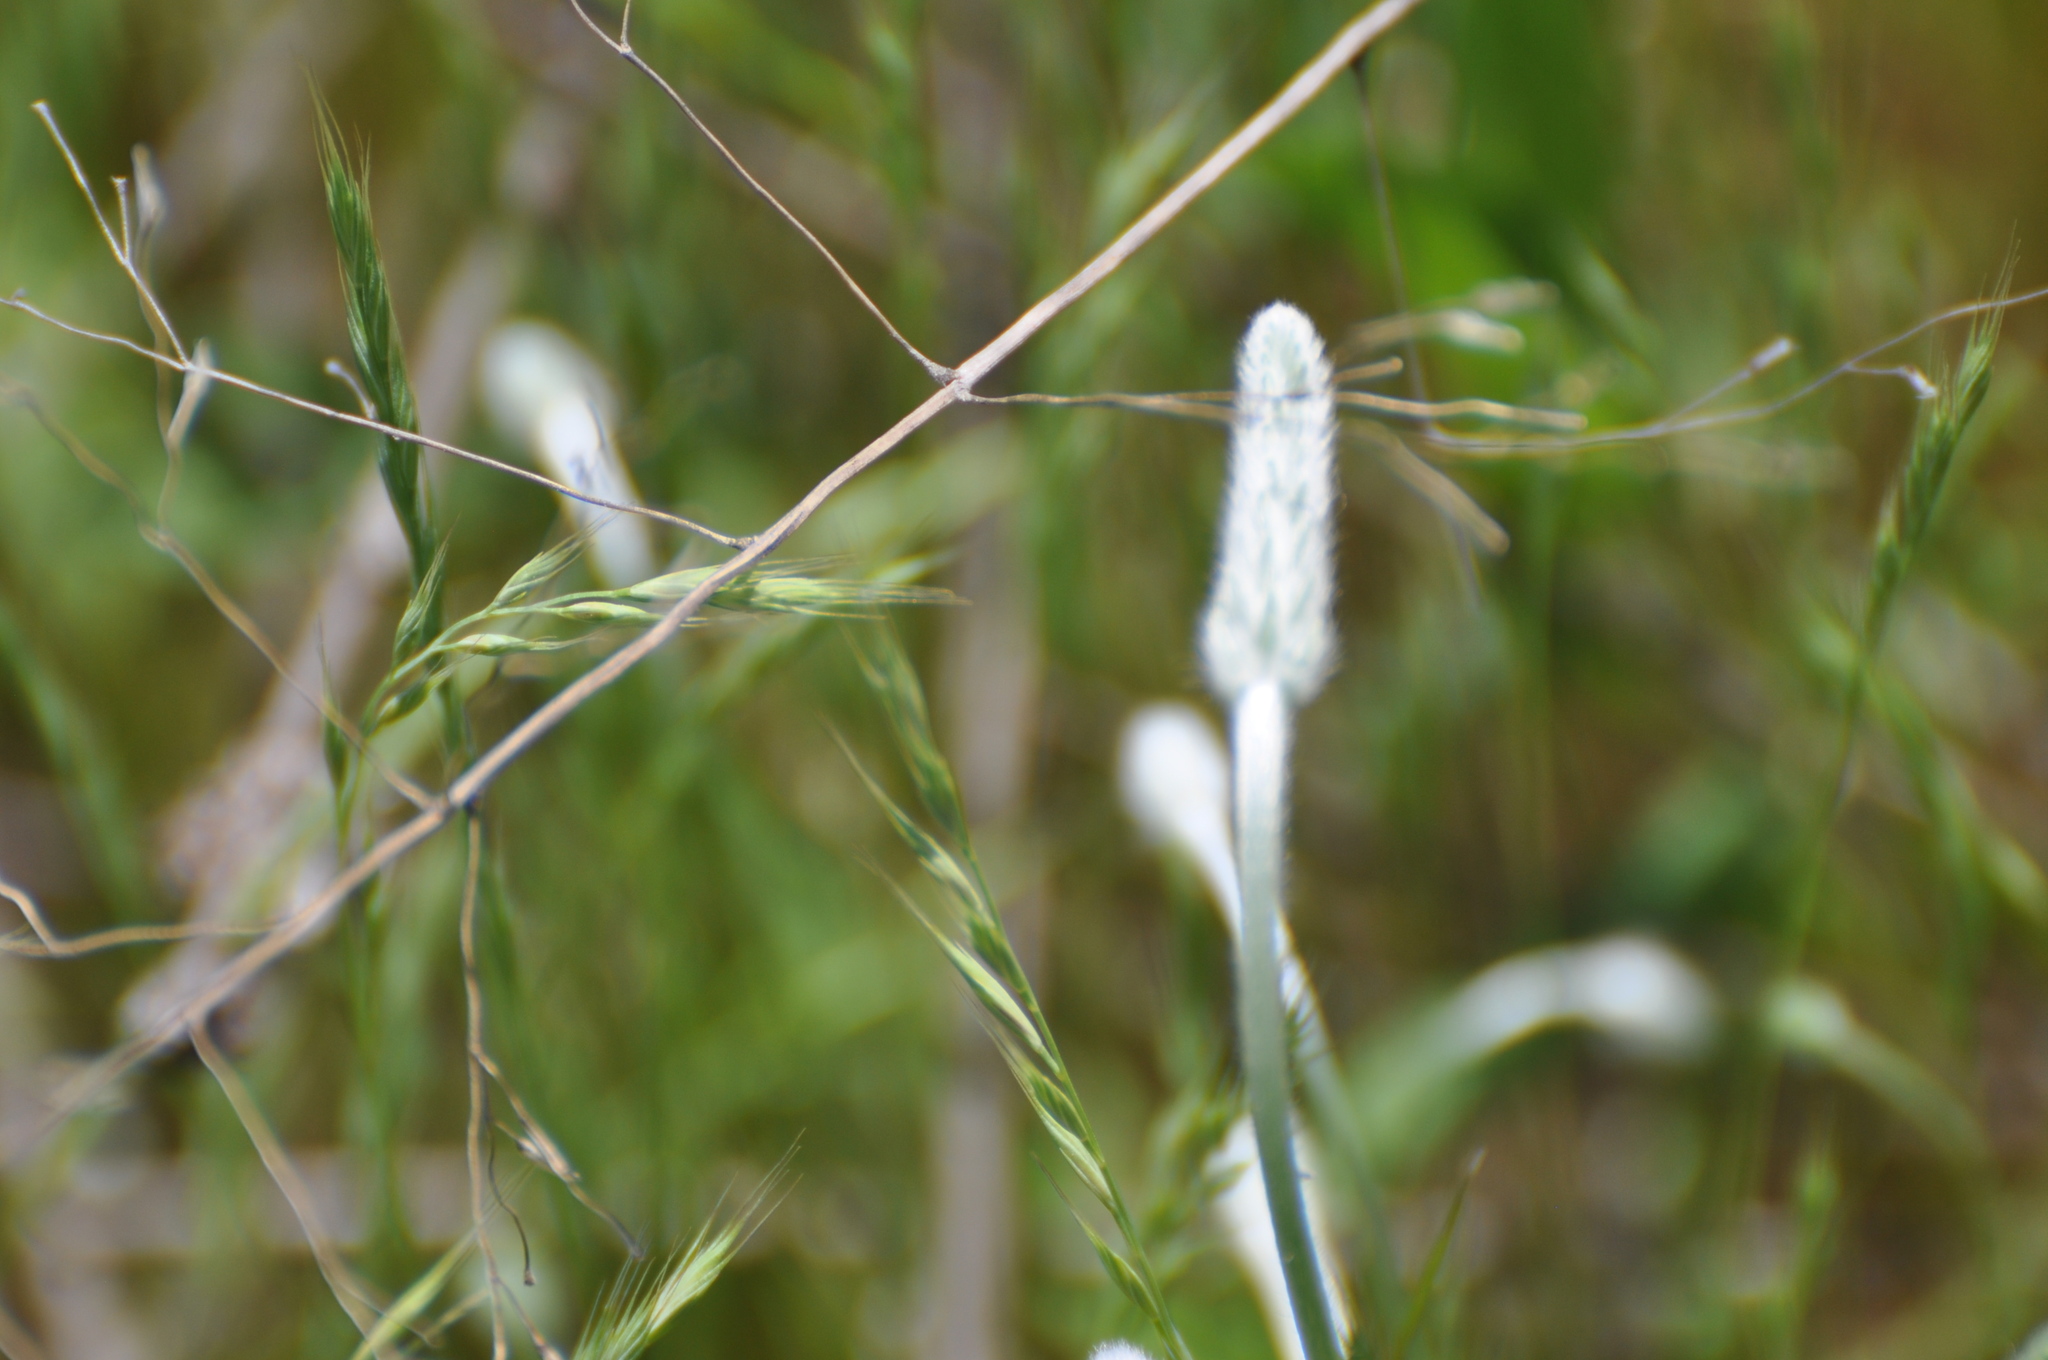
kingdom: Plantae
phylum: Tracheophyta
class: Magnoliopsida
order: Lamiales
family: Plantaginaceae
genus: Plantago
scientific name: Plantago patagonica
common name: Patagonia indian-wheat
